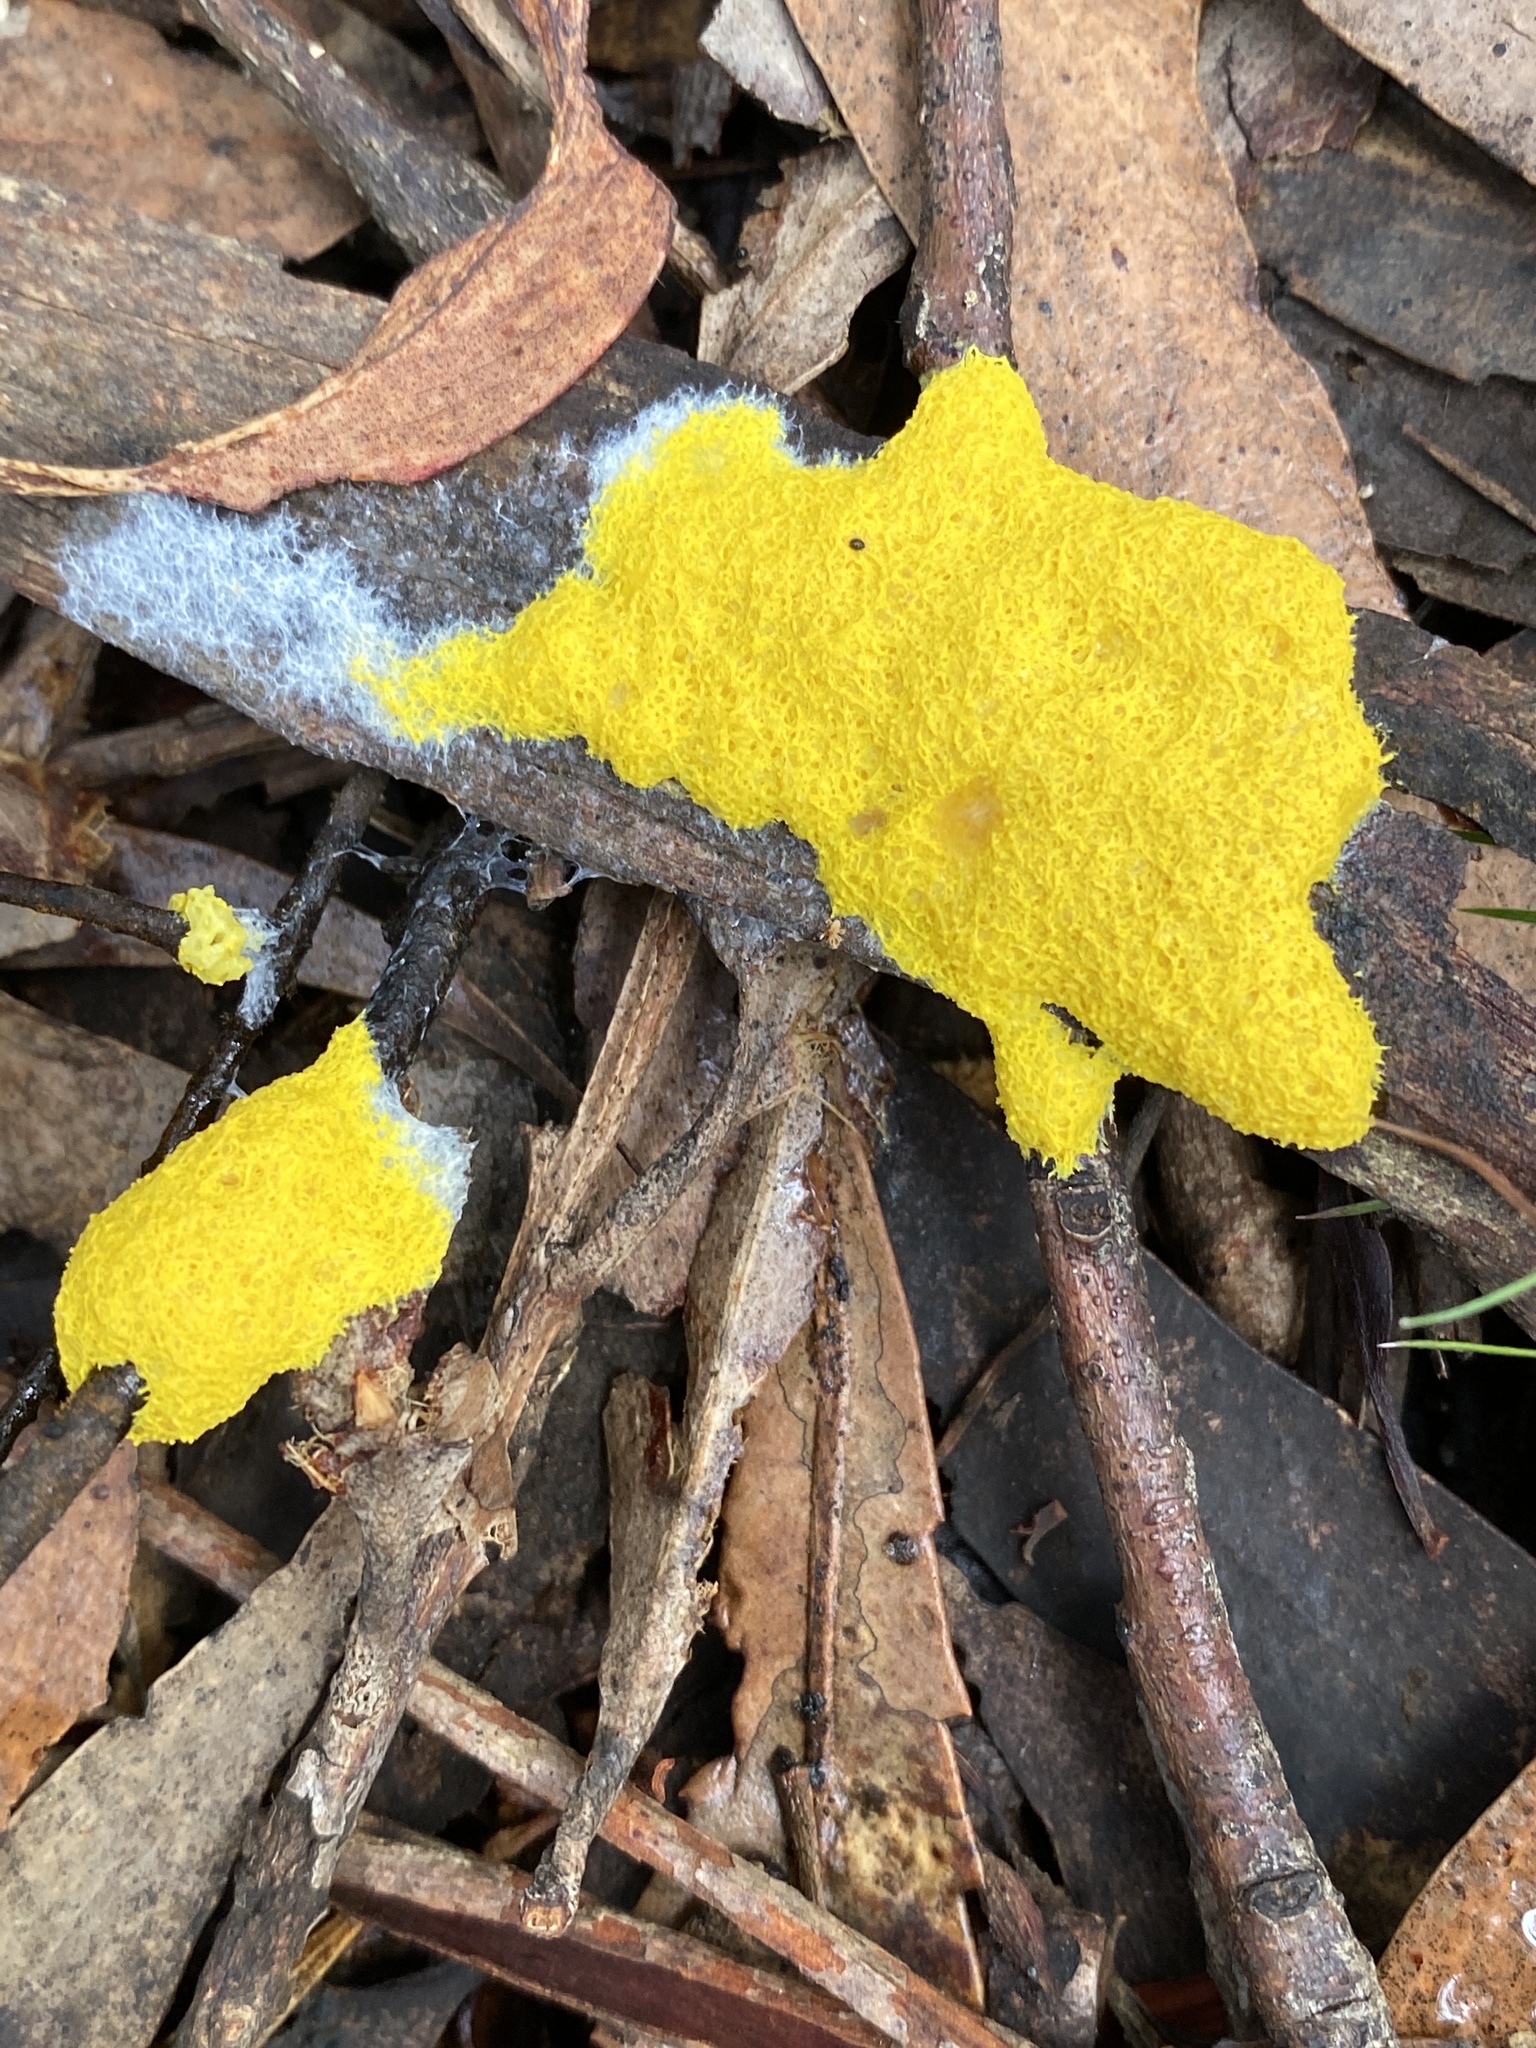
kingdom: Protozoa
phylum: Mycetozoa
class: Myxomycetes
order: Physarales
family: Physaraceae
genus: Fuligo
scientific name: Fuligo septica
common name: Dog vomit slime mold
